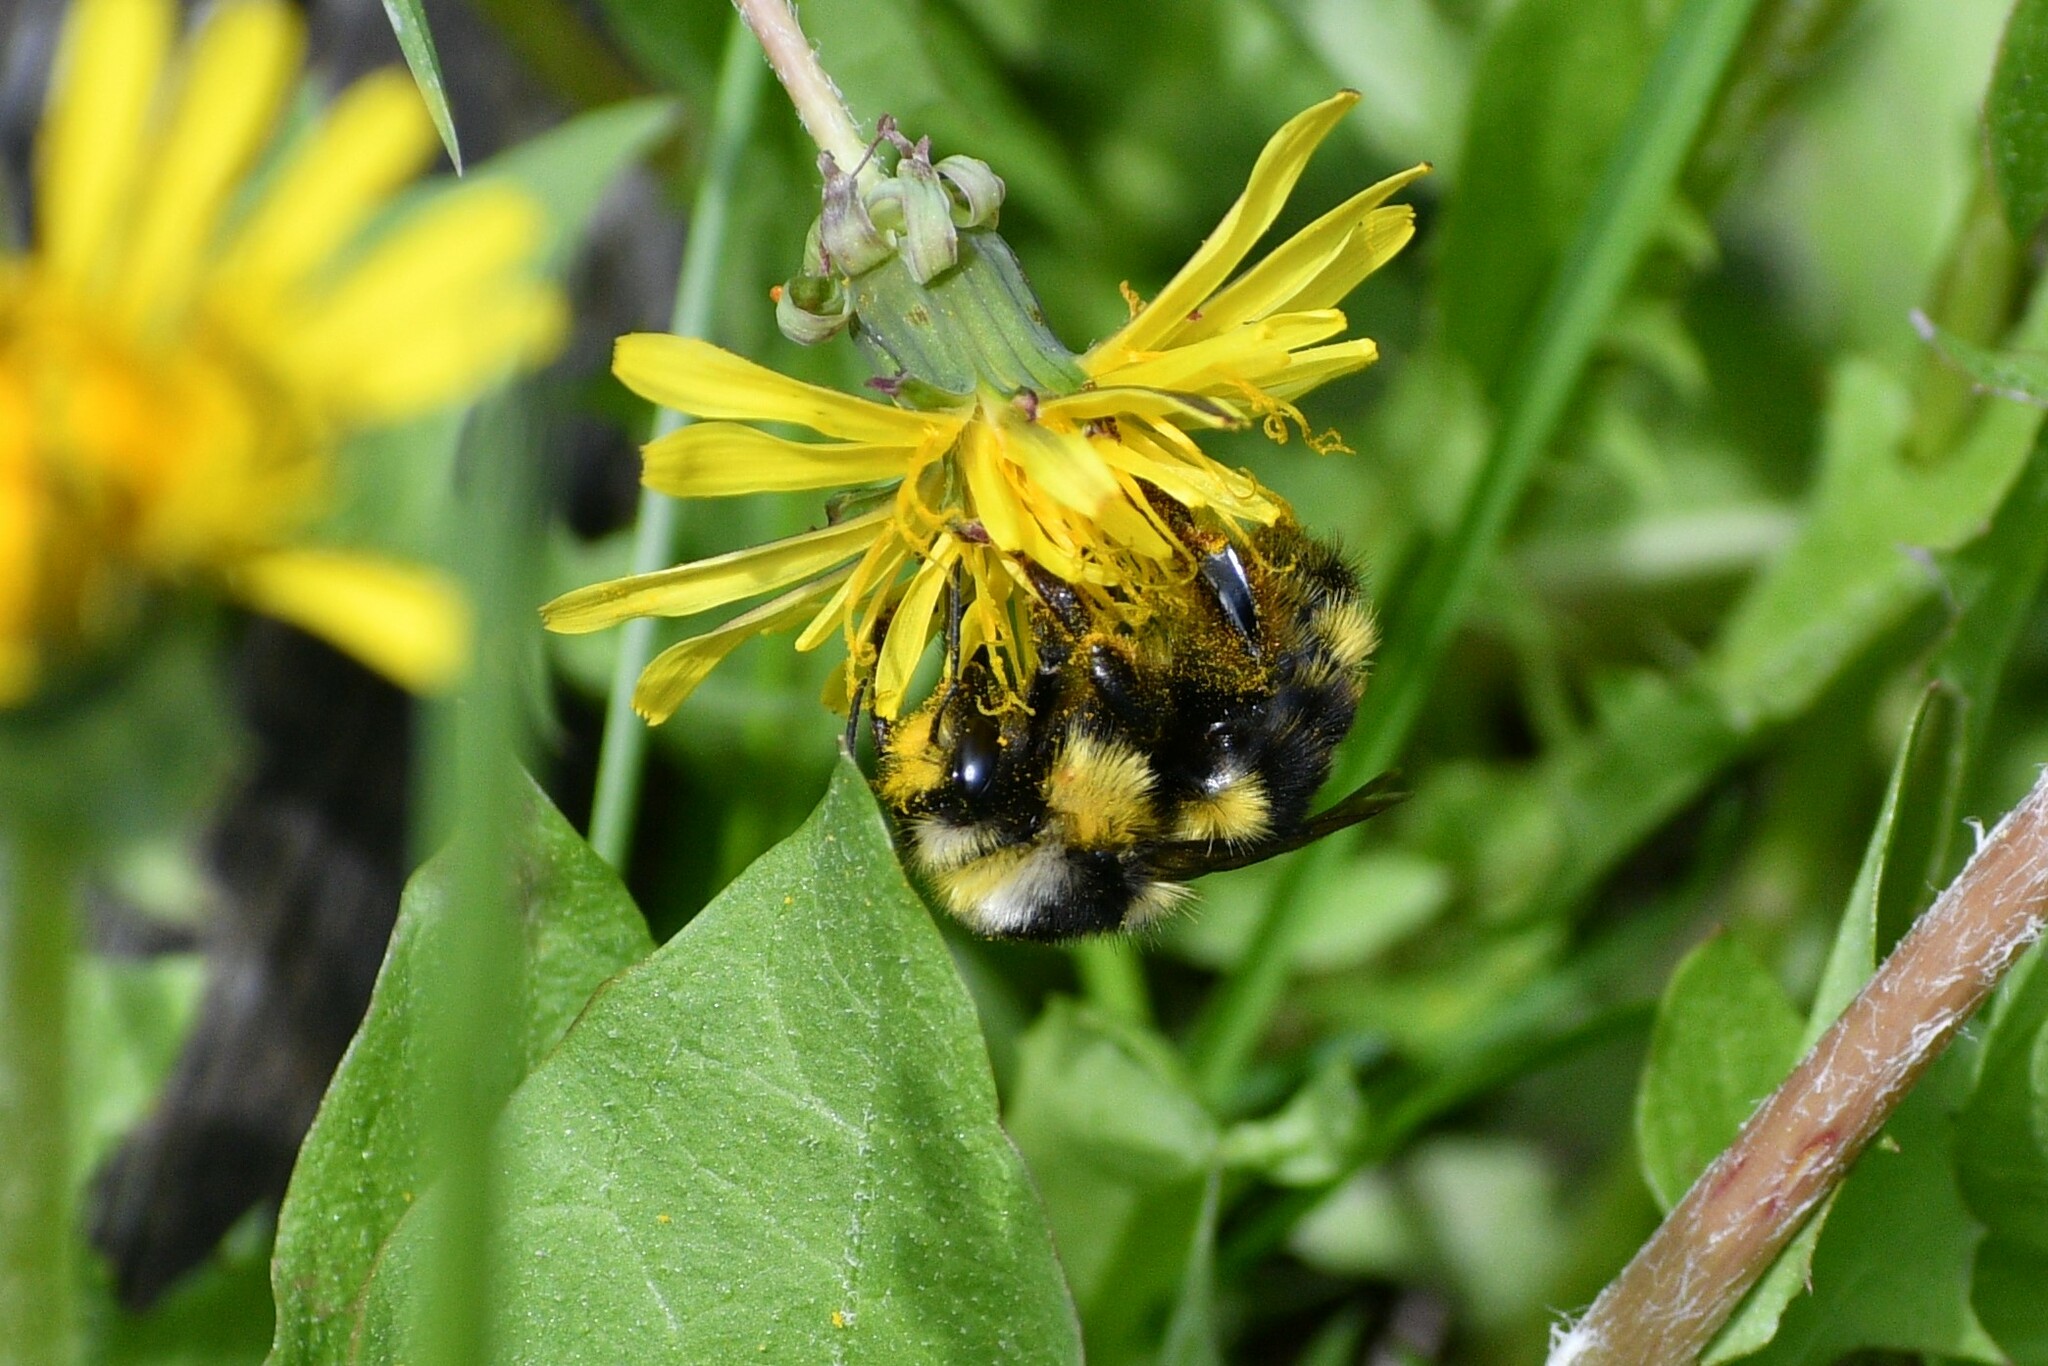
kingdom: Animalia
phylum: Arthropoda
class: Insecta
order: Hymenoptera
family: Apidae
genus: Bombus
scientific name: Bombus vancouverensis
